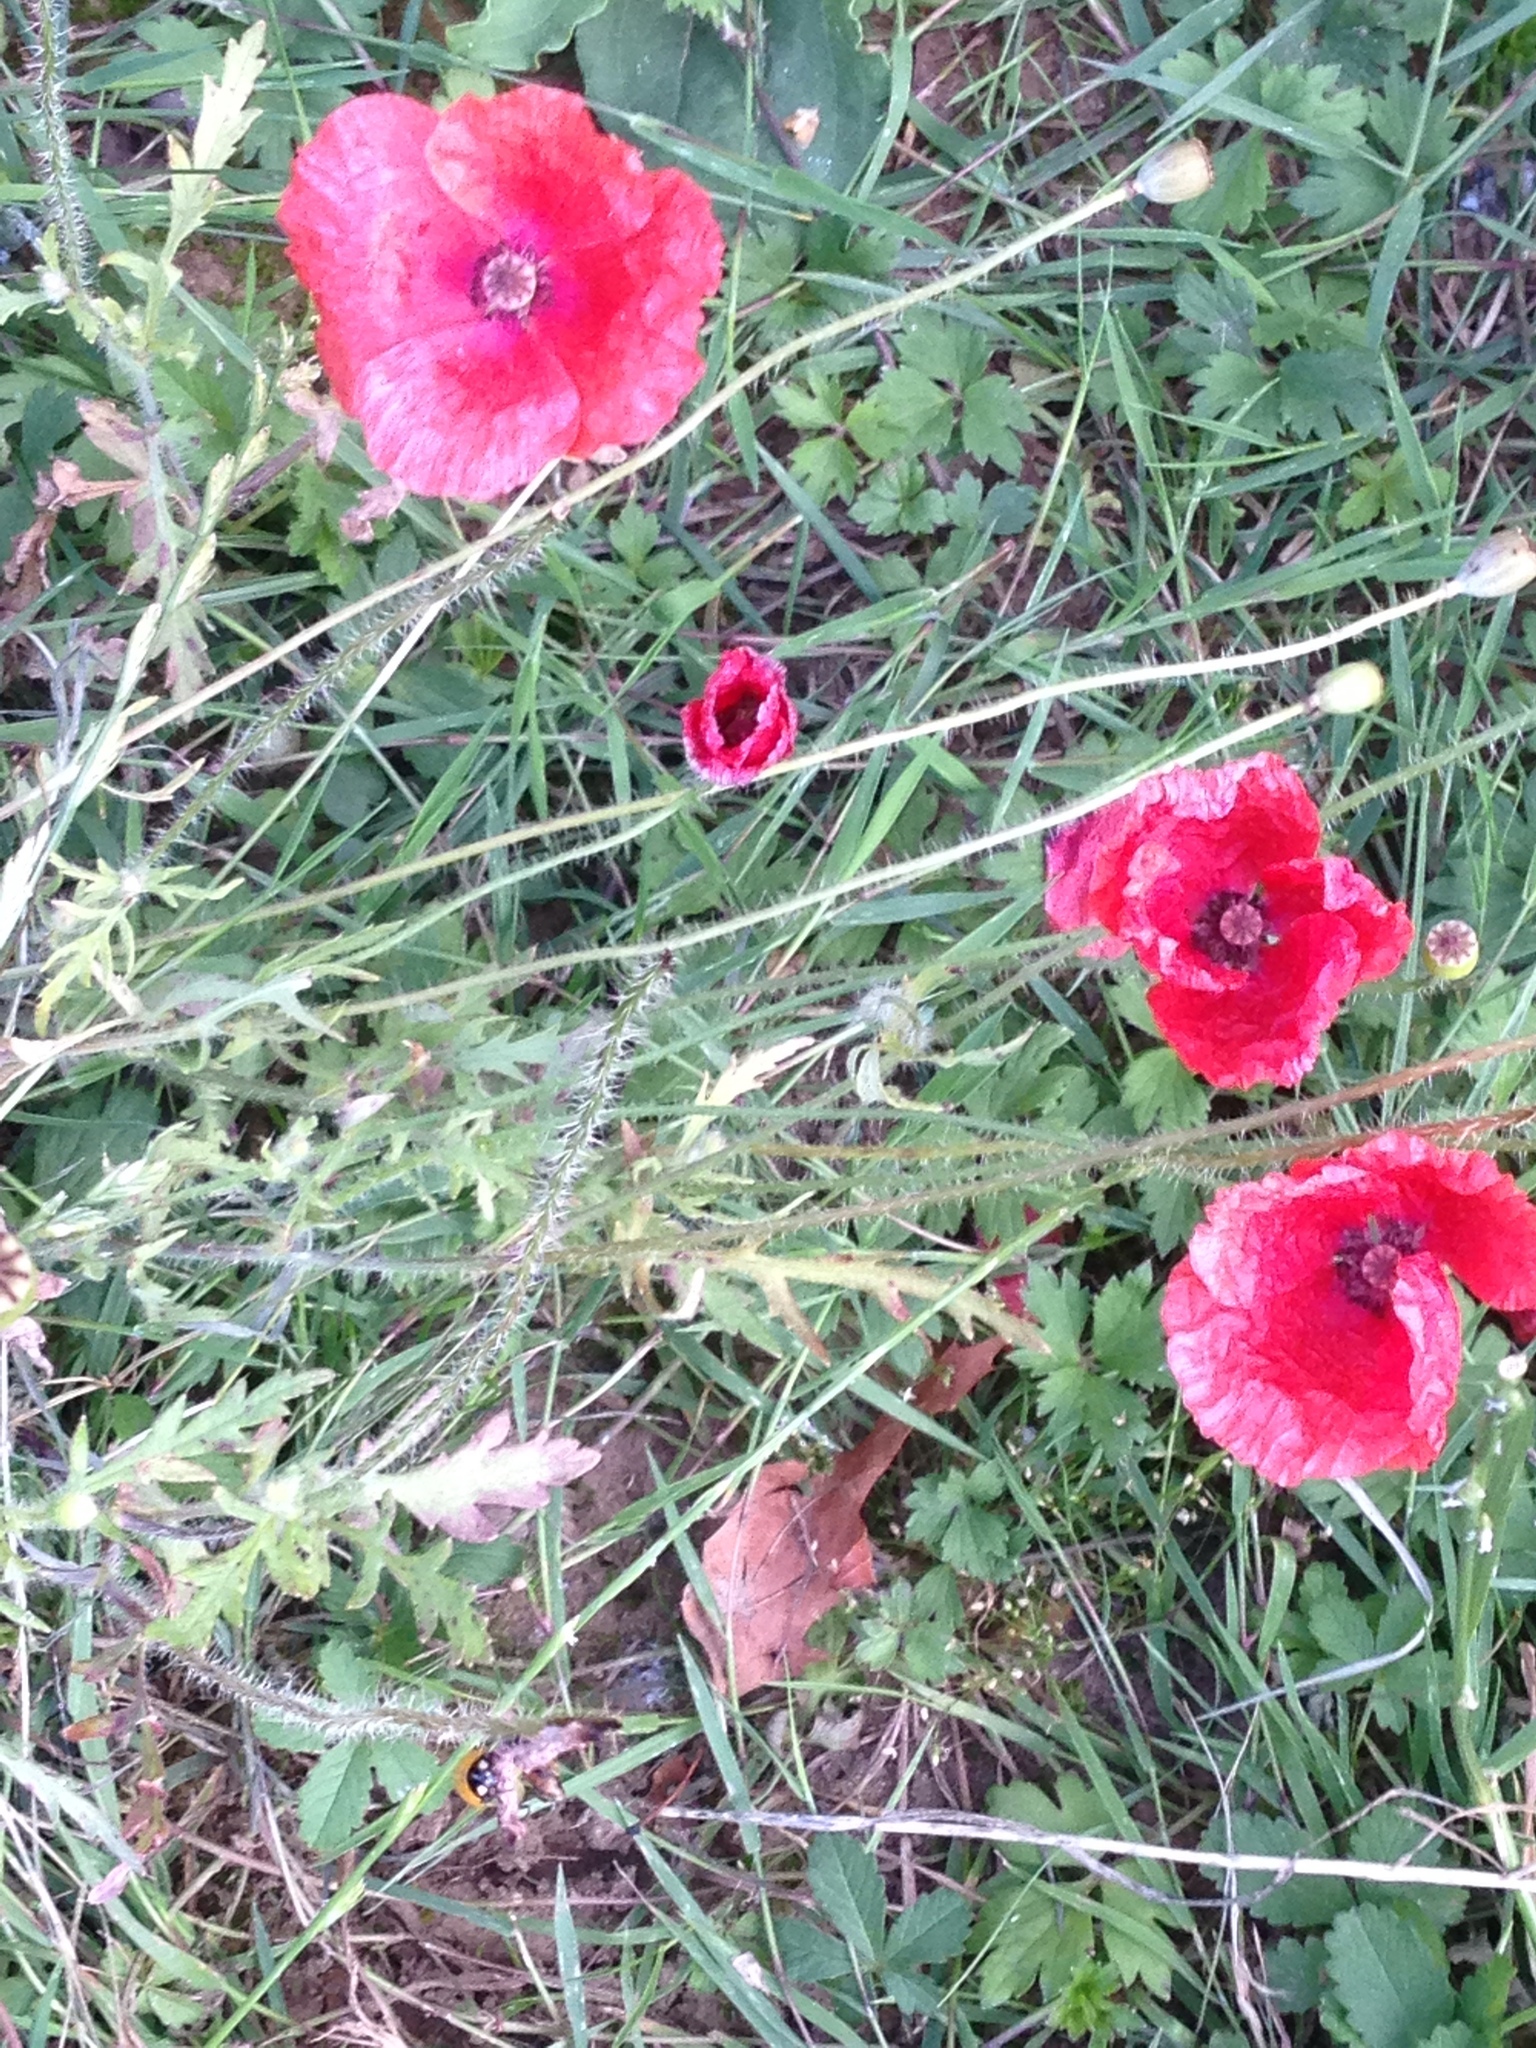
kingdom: Plantae
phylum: Tracheophyta
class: Magnoliopsida
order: Ranunculales
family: Papaveraceae
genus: Papaver
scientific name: Papaver rhoeas
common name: Corn poppy
